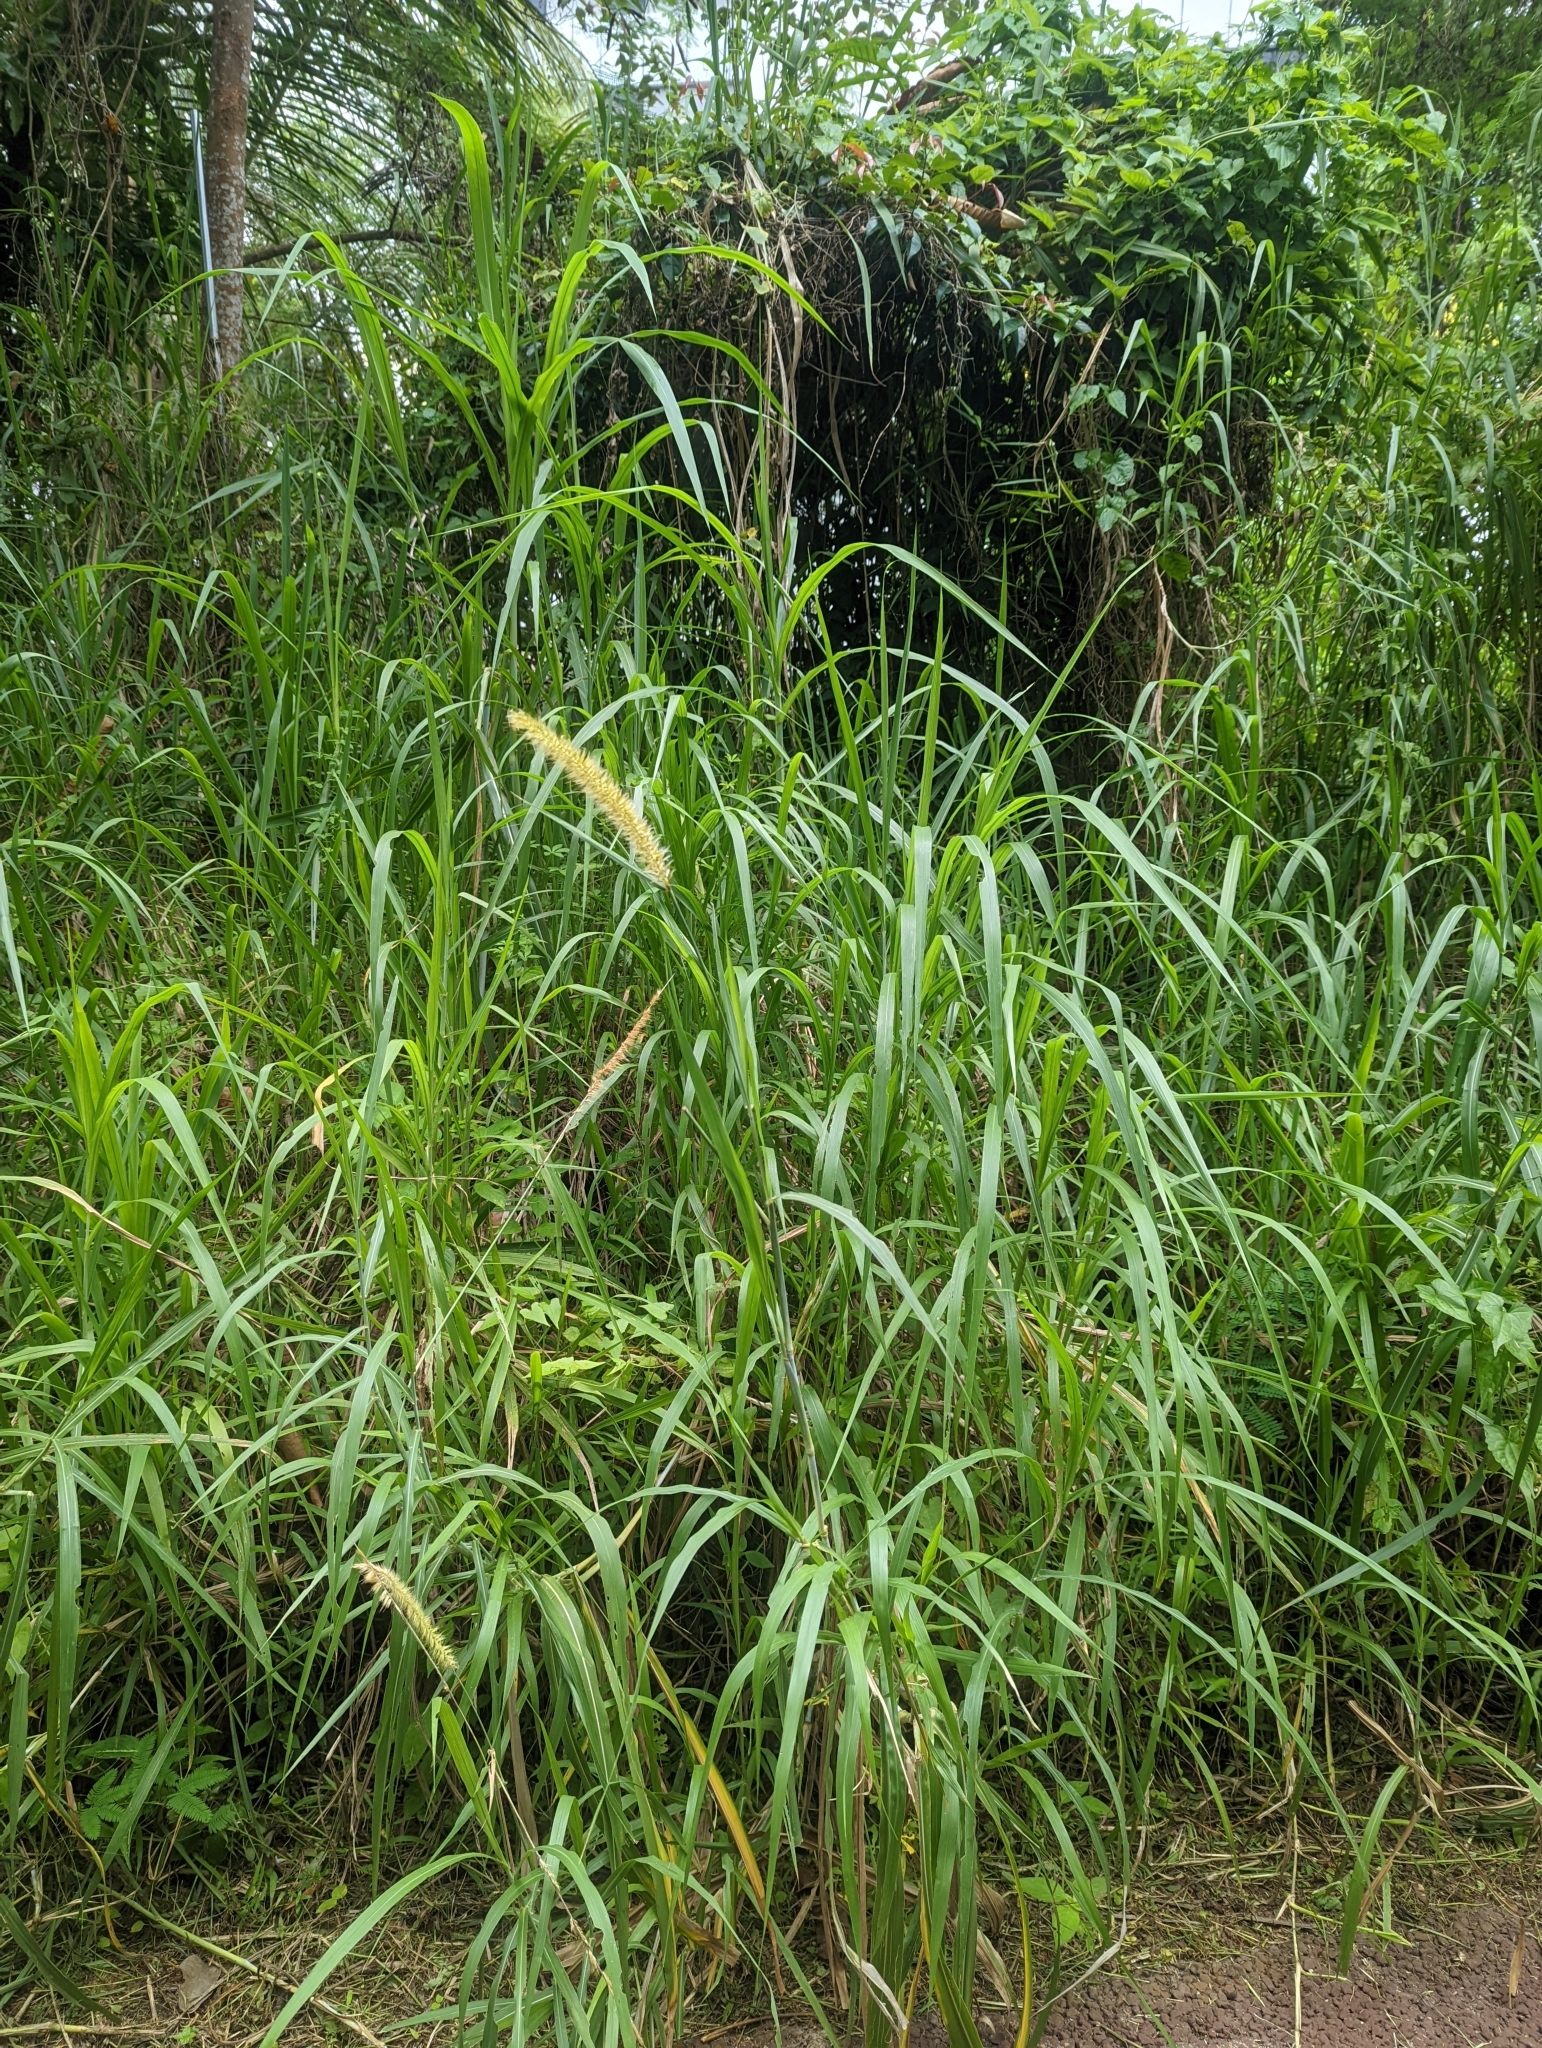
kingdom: Plantae
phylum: Tracheophyta
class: Liliopsida
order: Poales
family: Poaceae
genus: Cenchrus
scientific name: Cenchrus purpureus
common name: Elephant grass
